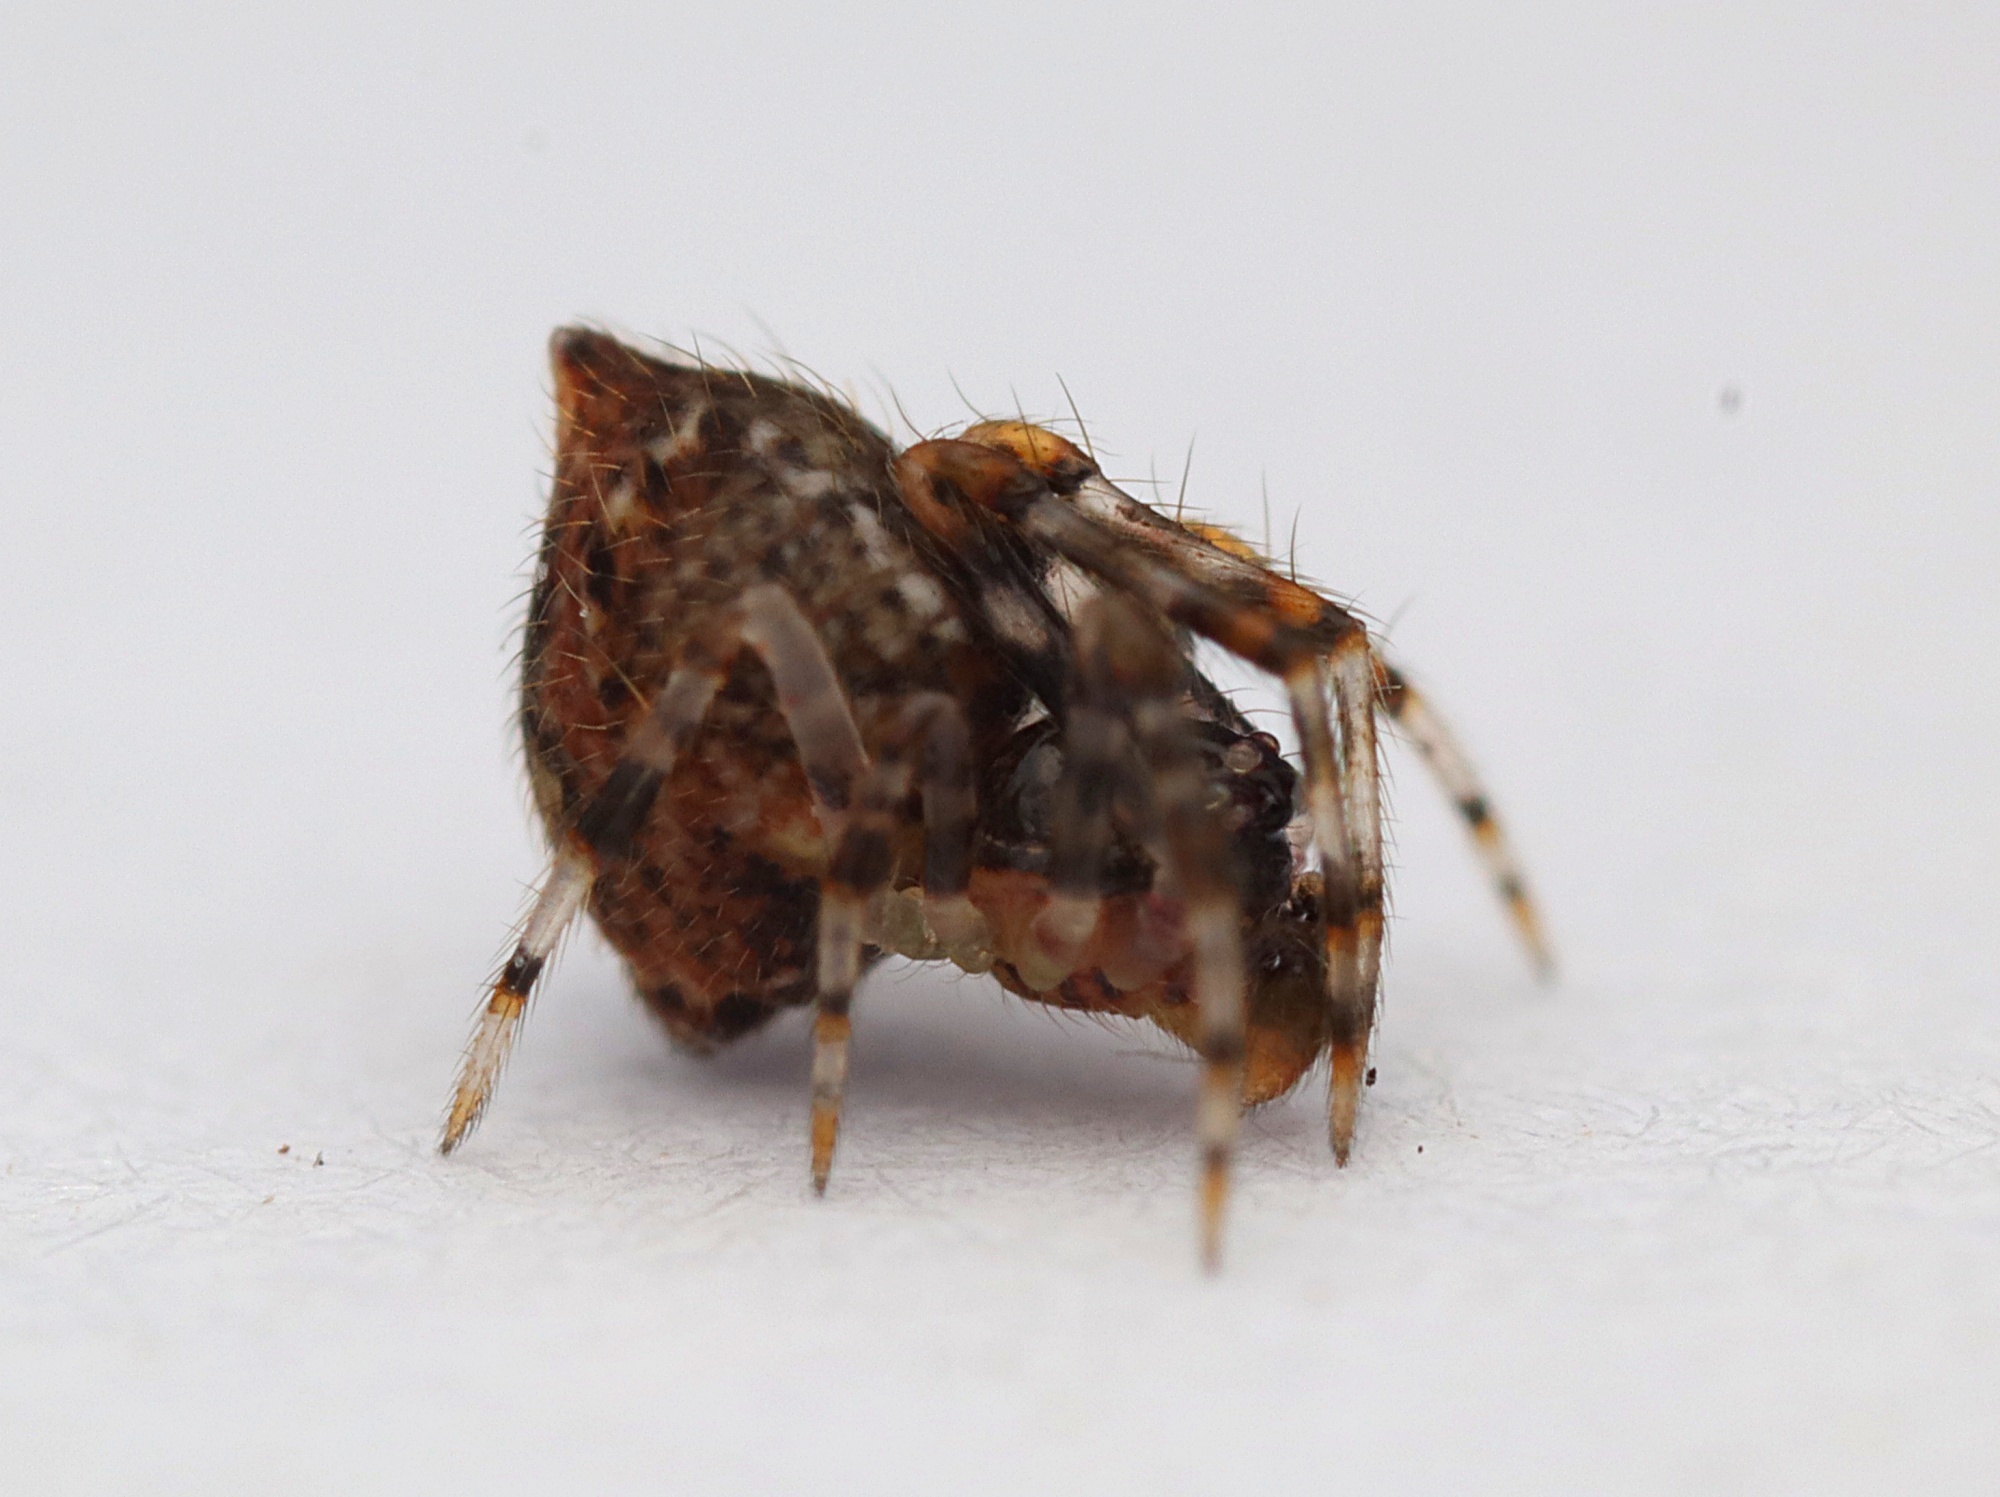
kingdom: Animalia
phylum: Arthropoda
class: Arachnida
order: Araneae
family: Theridiidae
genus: Cryptachaea
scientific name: Cryptachaea meraukensis
